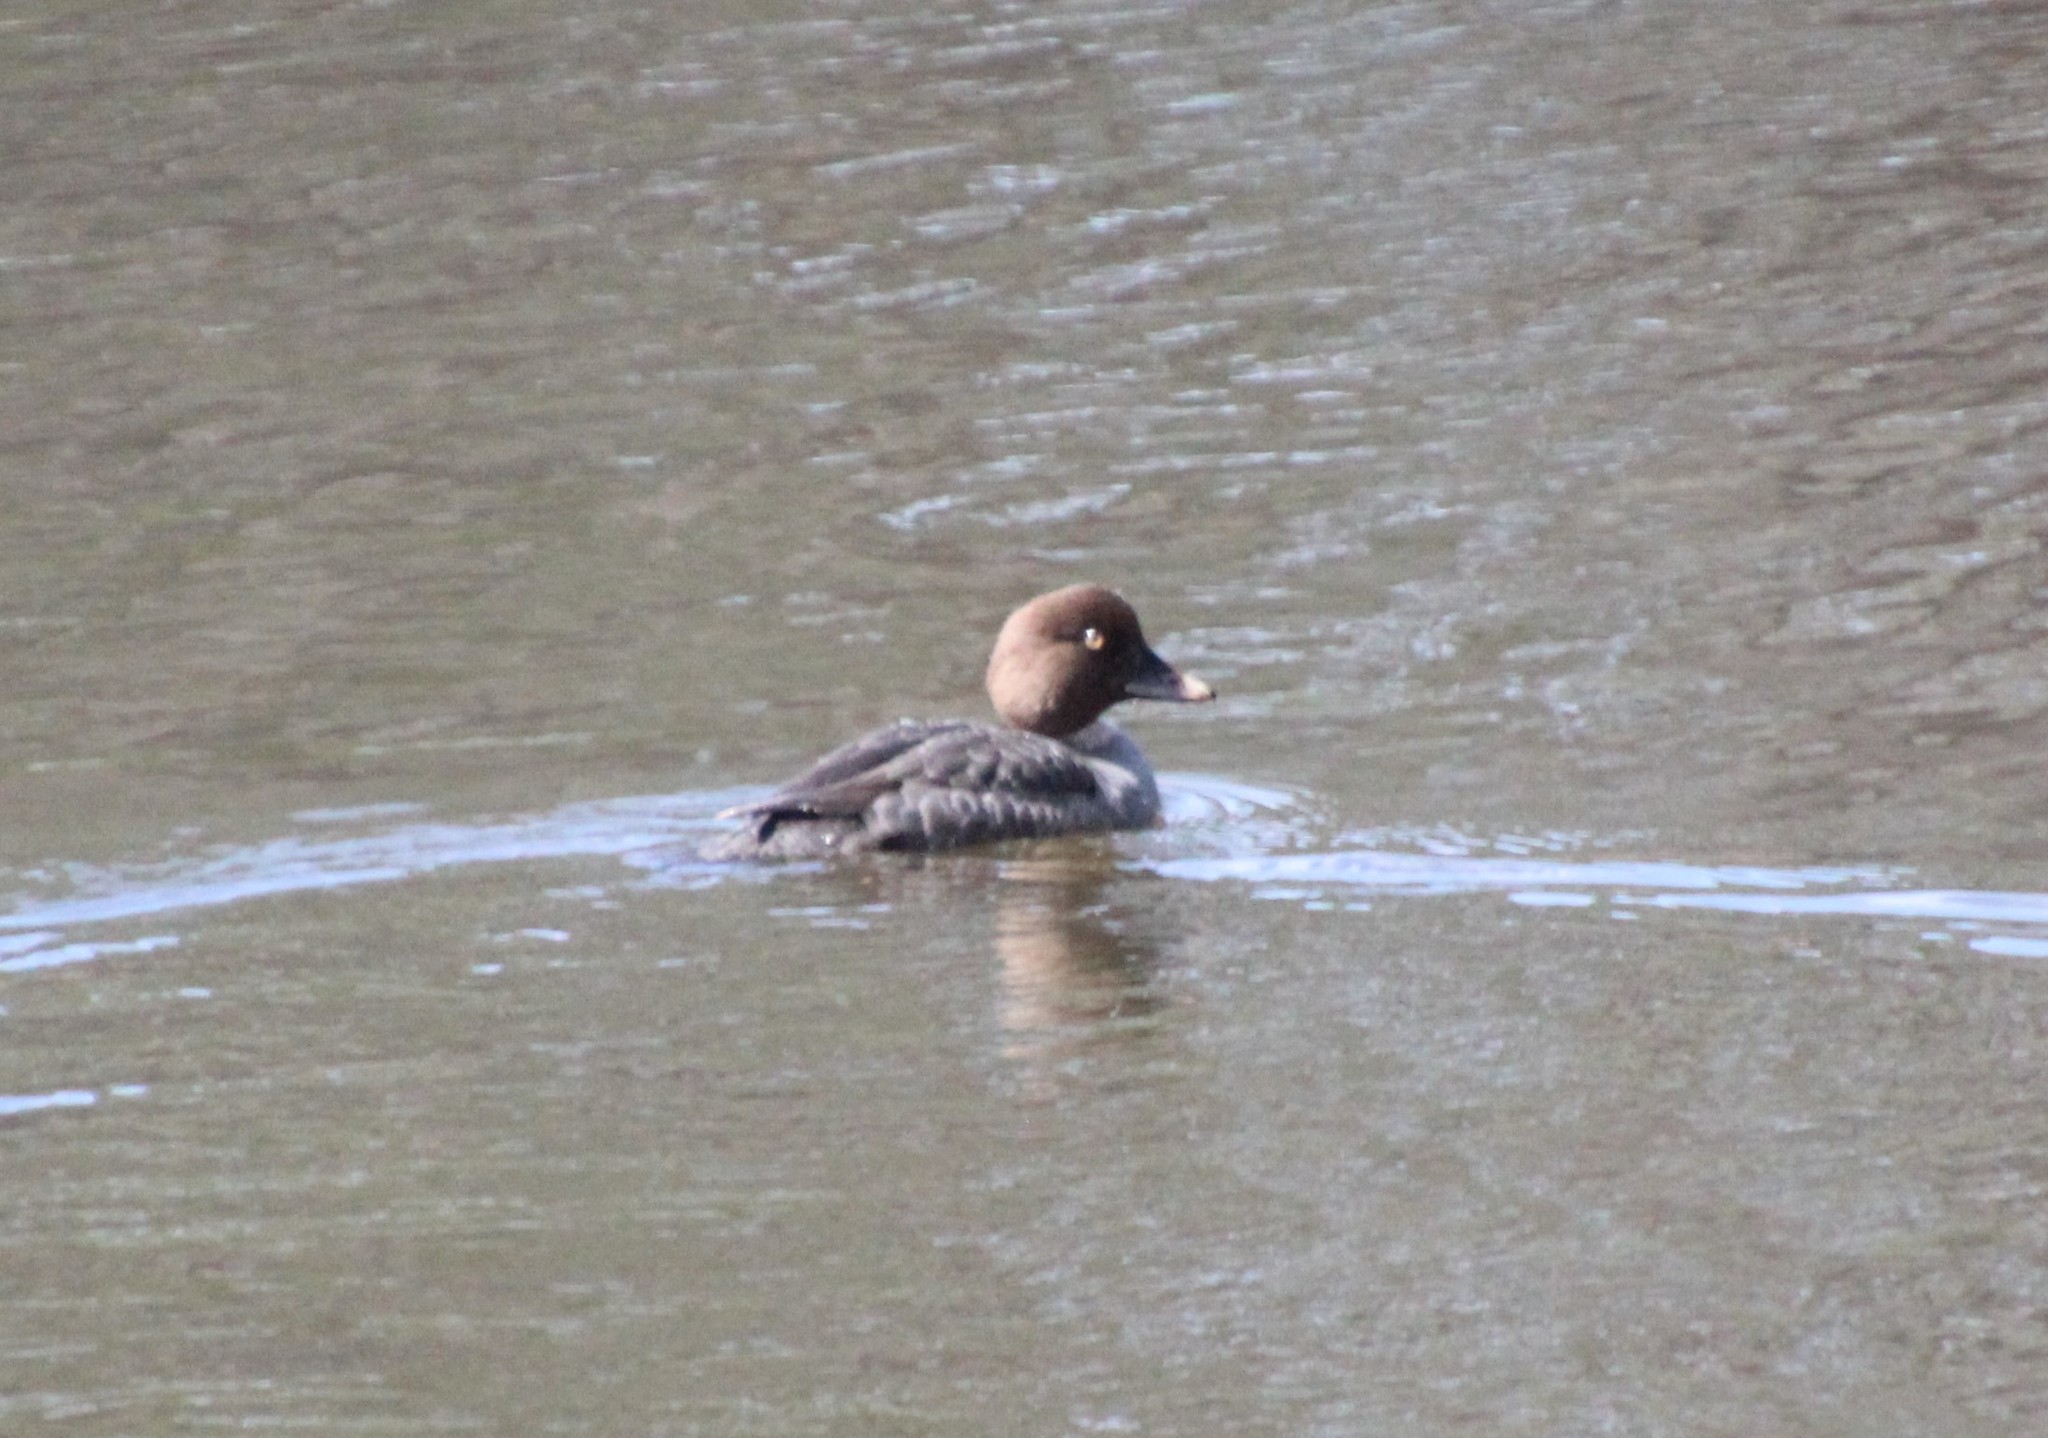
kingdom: Animalia
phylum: Chordata
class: Aves
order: Anseriformes
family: Anatidae
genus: Bucephala
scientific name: Bucephala clangula
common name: Common goldeneye
